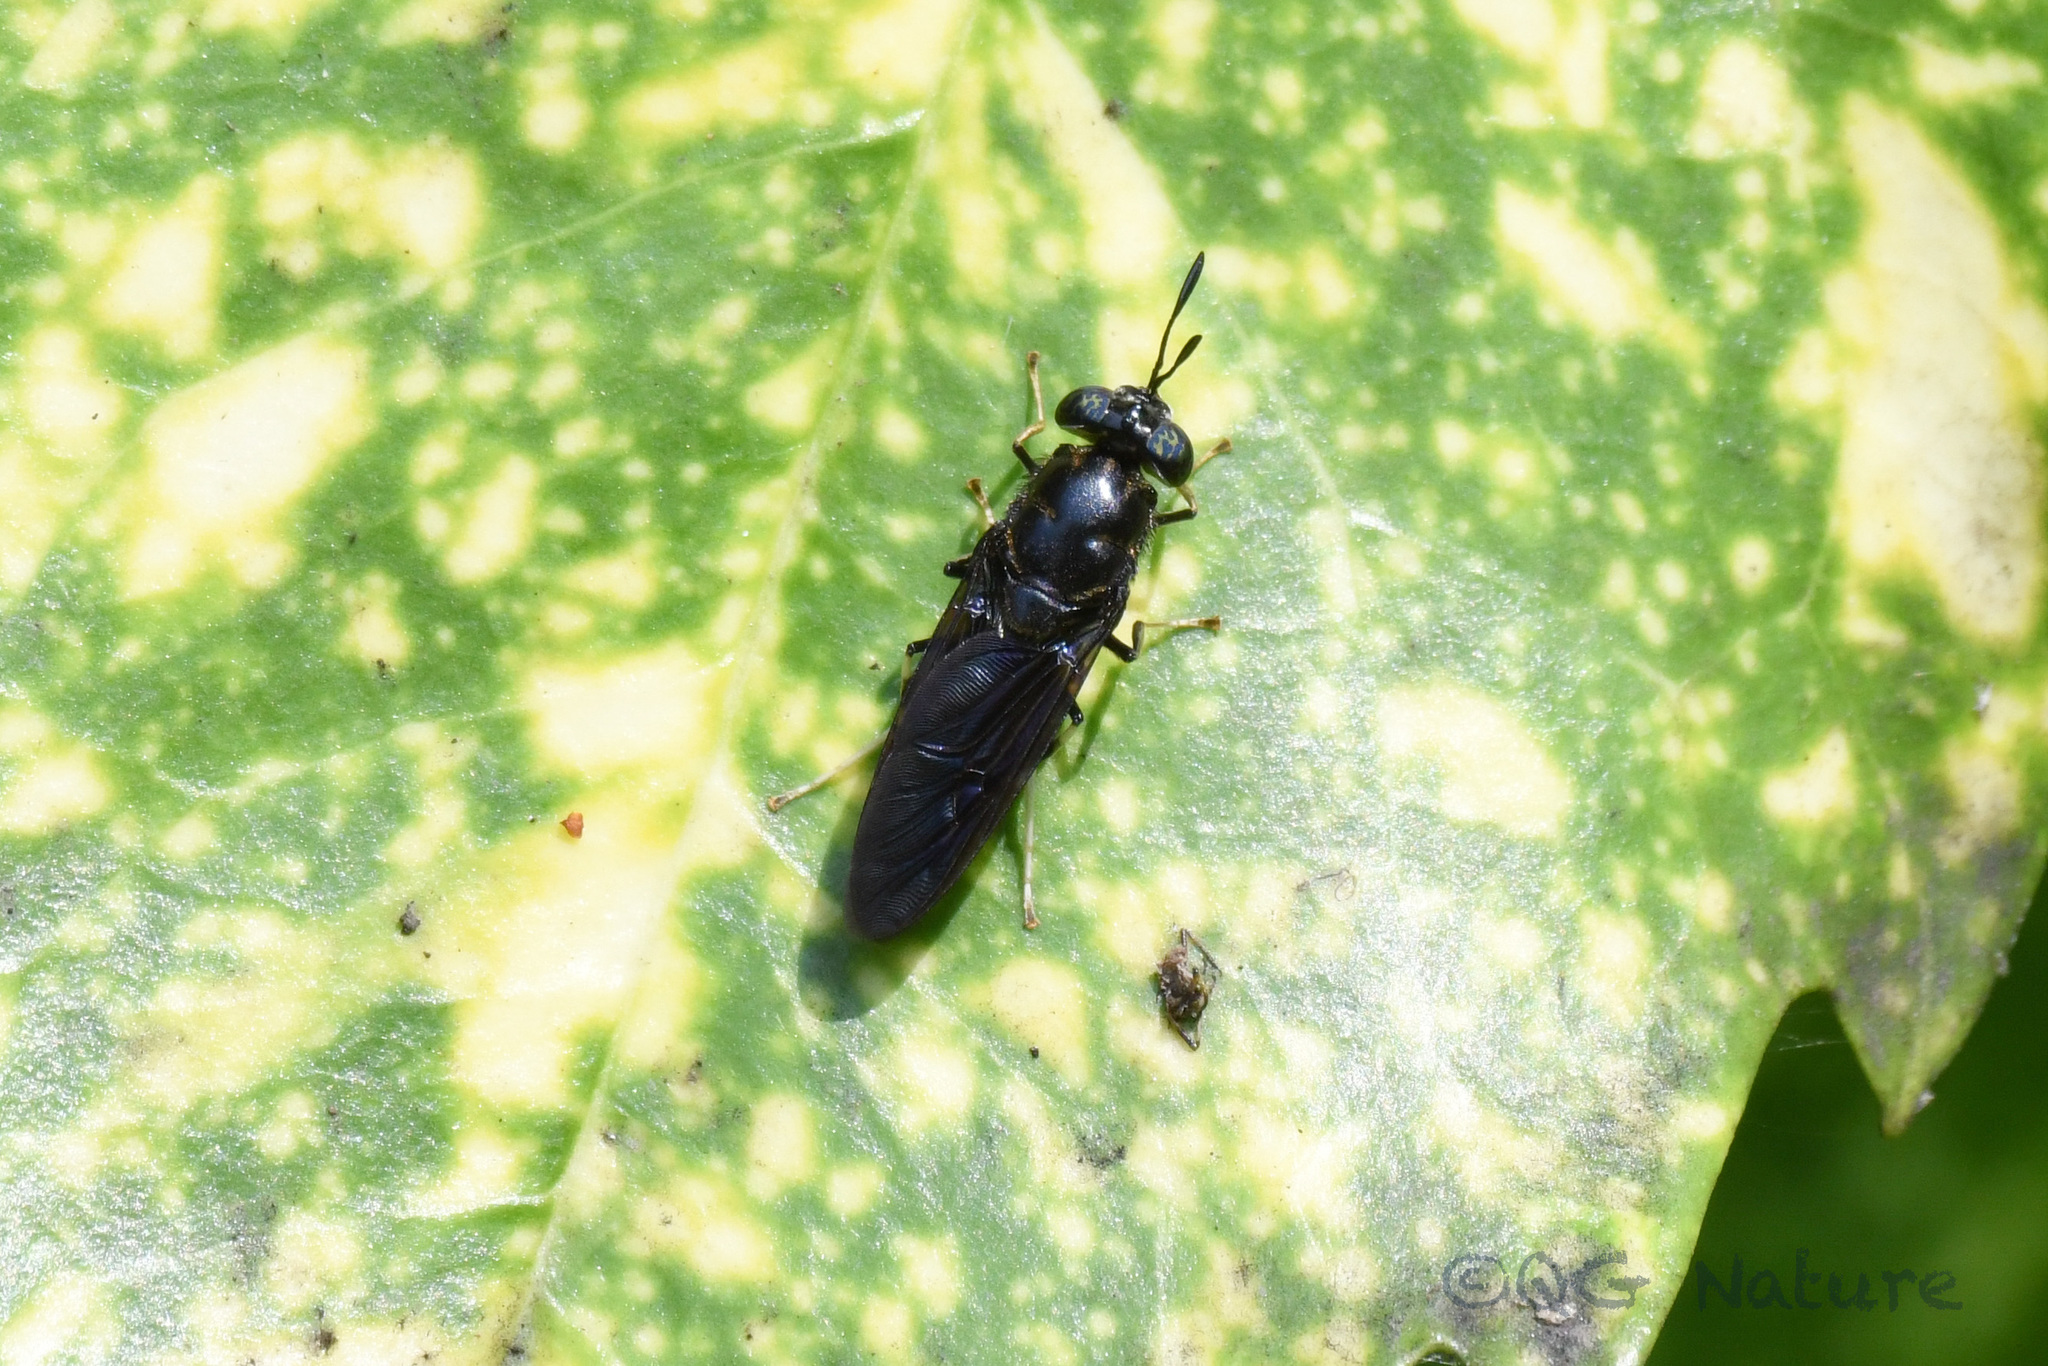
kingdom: Animalia
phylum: Arthropoda
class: Insecta
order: Diptera
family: Stratiomyidae
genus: Hermetia
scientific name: Hermetia illucens
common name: Black soldier fly
